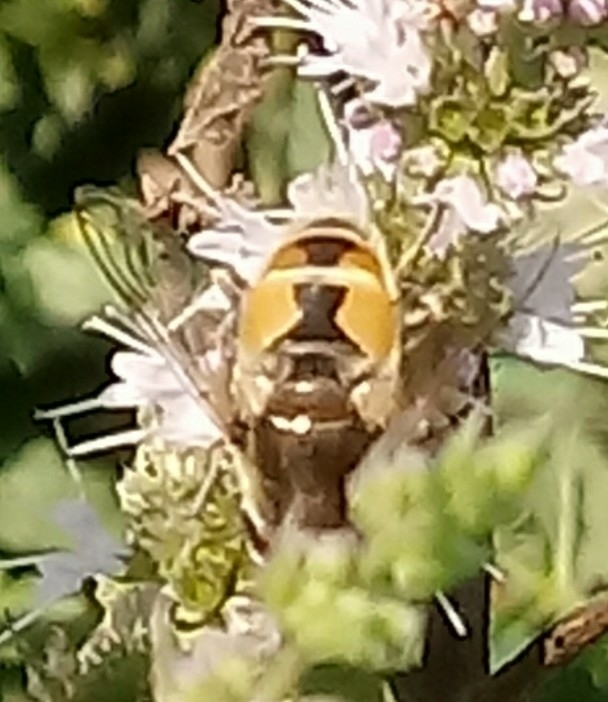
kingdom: Animalia
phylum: Arthropoda
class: Insecta
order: Diptera
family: Syrphidae
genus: Eristalis
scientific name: Eristalis arbustorum
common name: Hover fly
